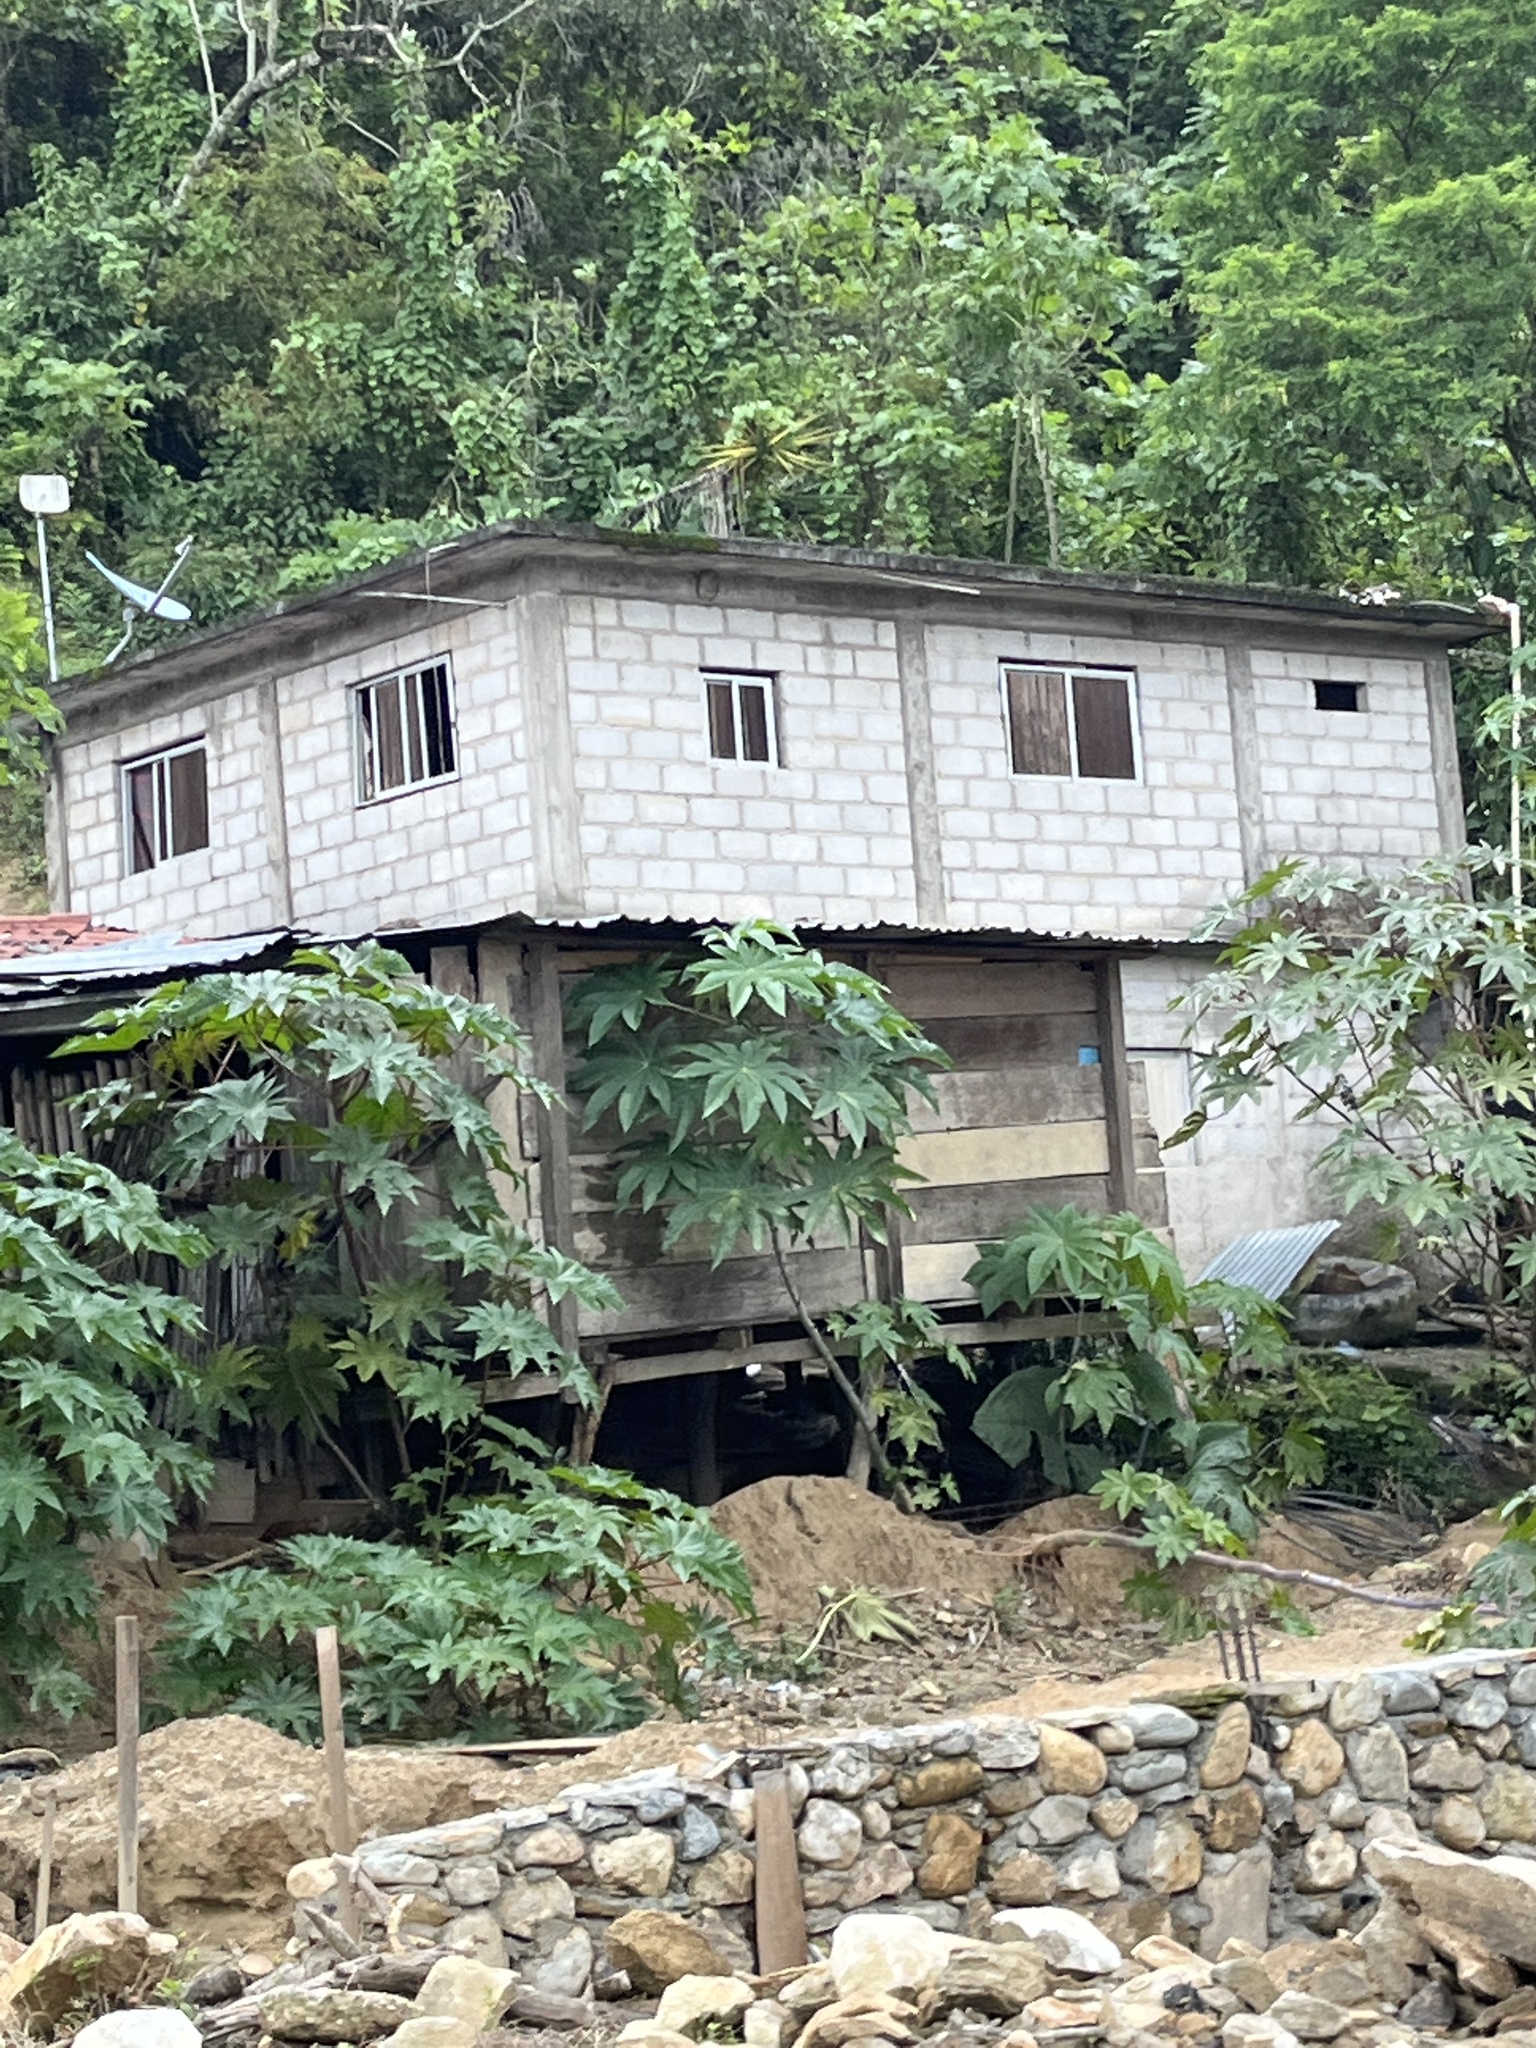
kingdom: Plantae
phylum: Tracheophyta
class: Magnoliopsida
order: Malpighiales
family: Euphorbiaceae
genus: Ricinus
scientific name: Ricinus communis
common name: Castor-oil-plant
